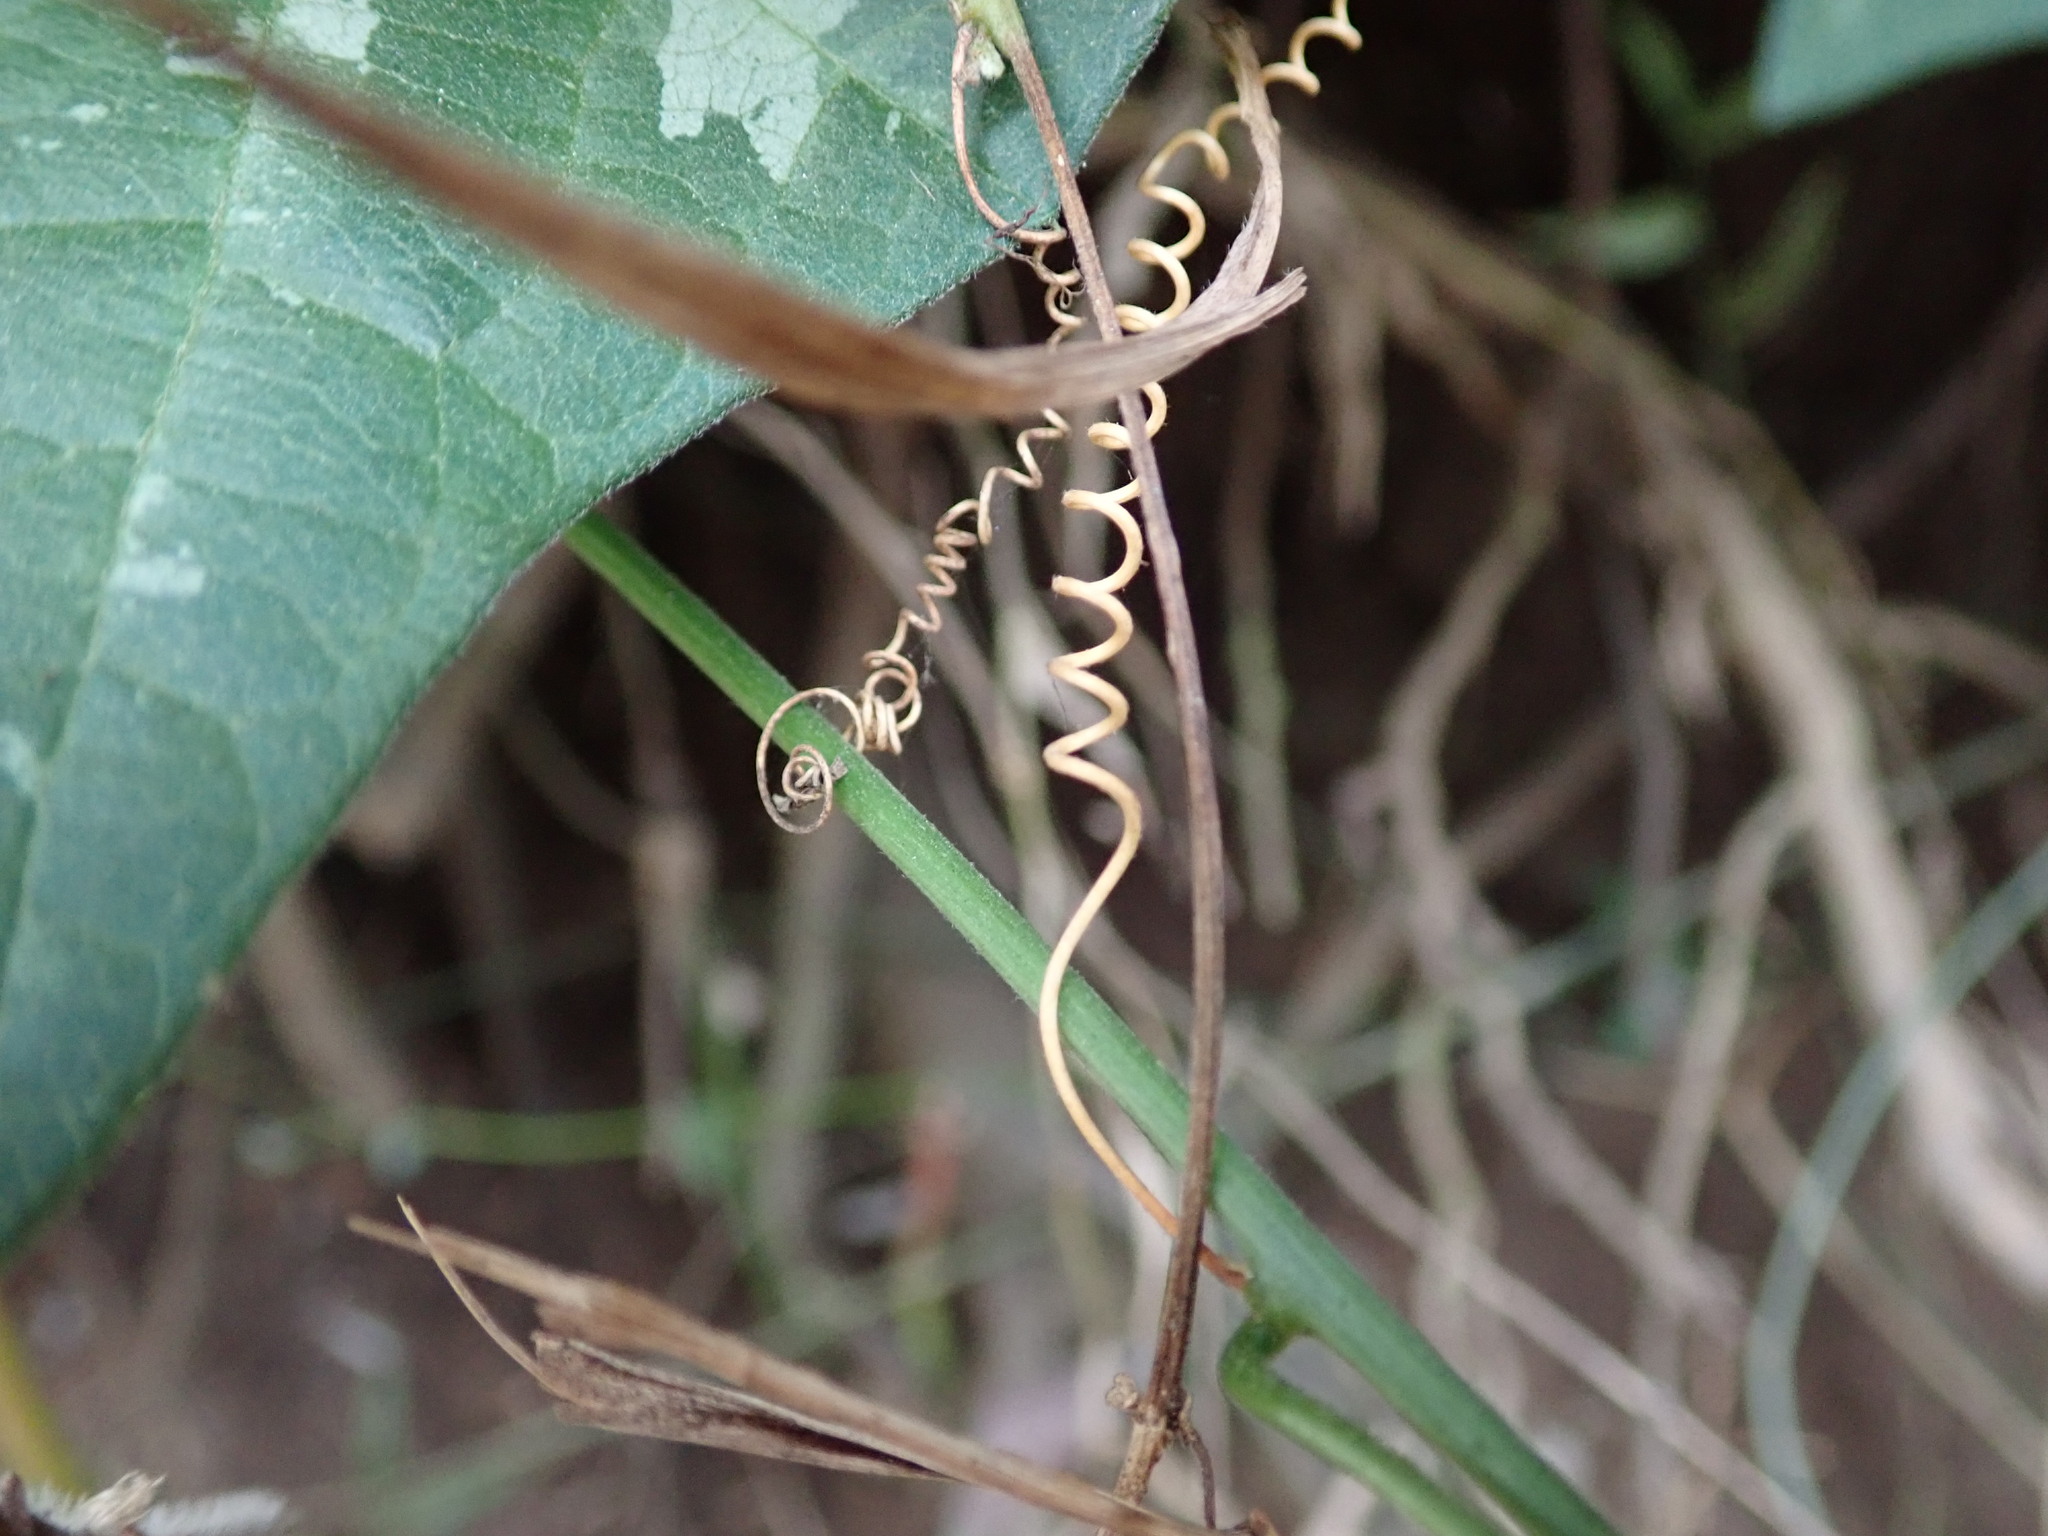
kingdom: Plantae
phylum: Tracheophyta
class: Magnoliopsida
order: Malpighiales
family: Passifloraceae
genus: Passiflora
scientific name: Passiflora leschenaultii
